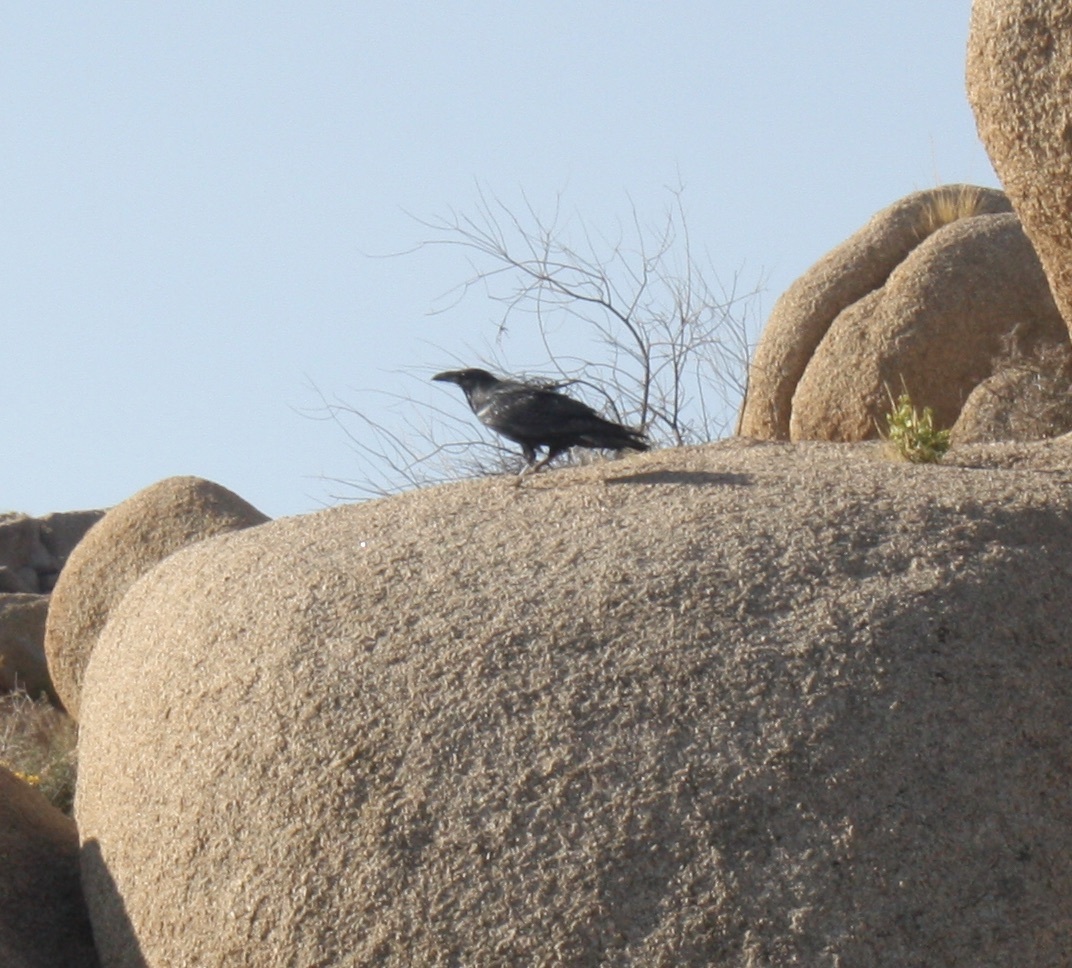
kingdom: Animalia
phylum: Chordata
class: Aves
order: Passeriformes
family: Corvidae
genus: Corvus
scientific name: Corvus corax
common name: Common raven
